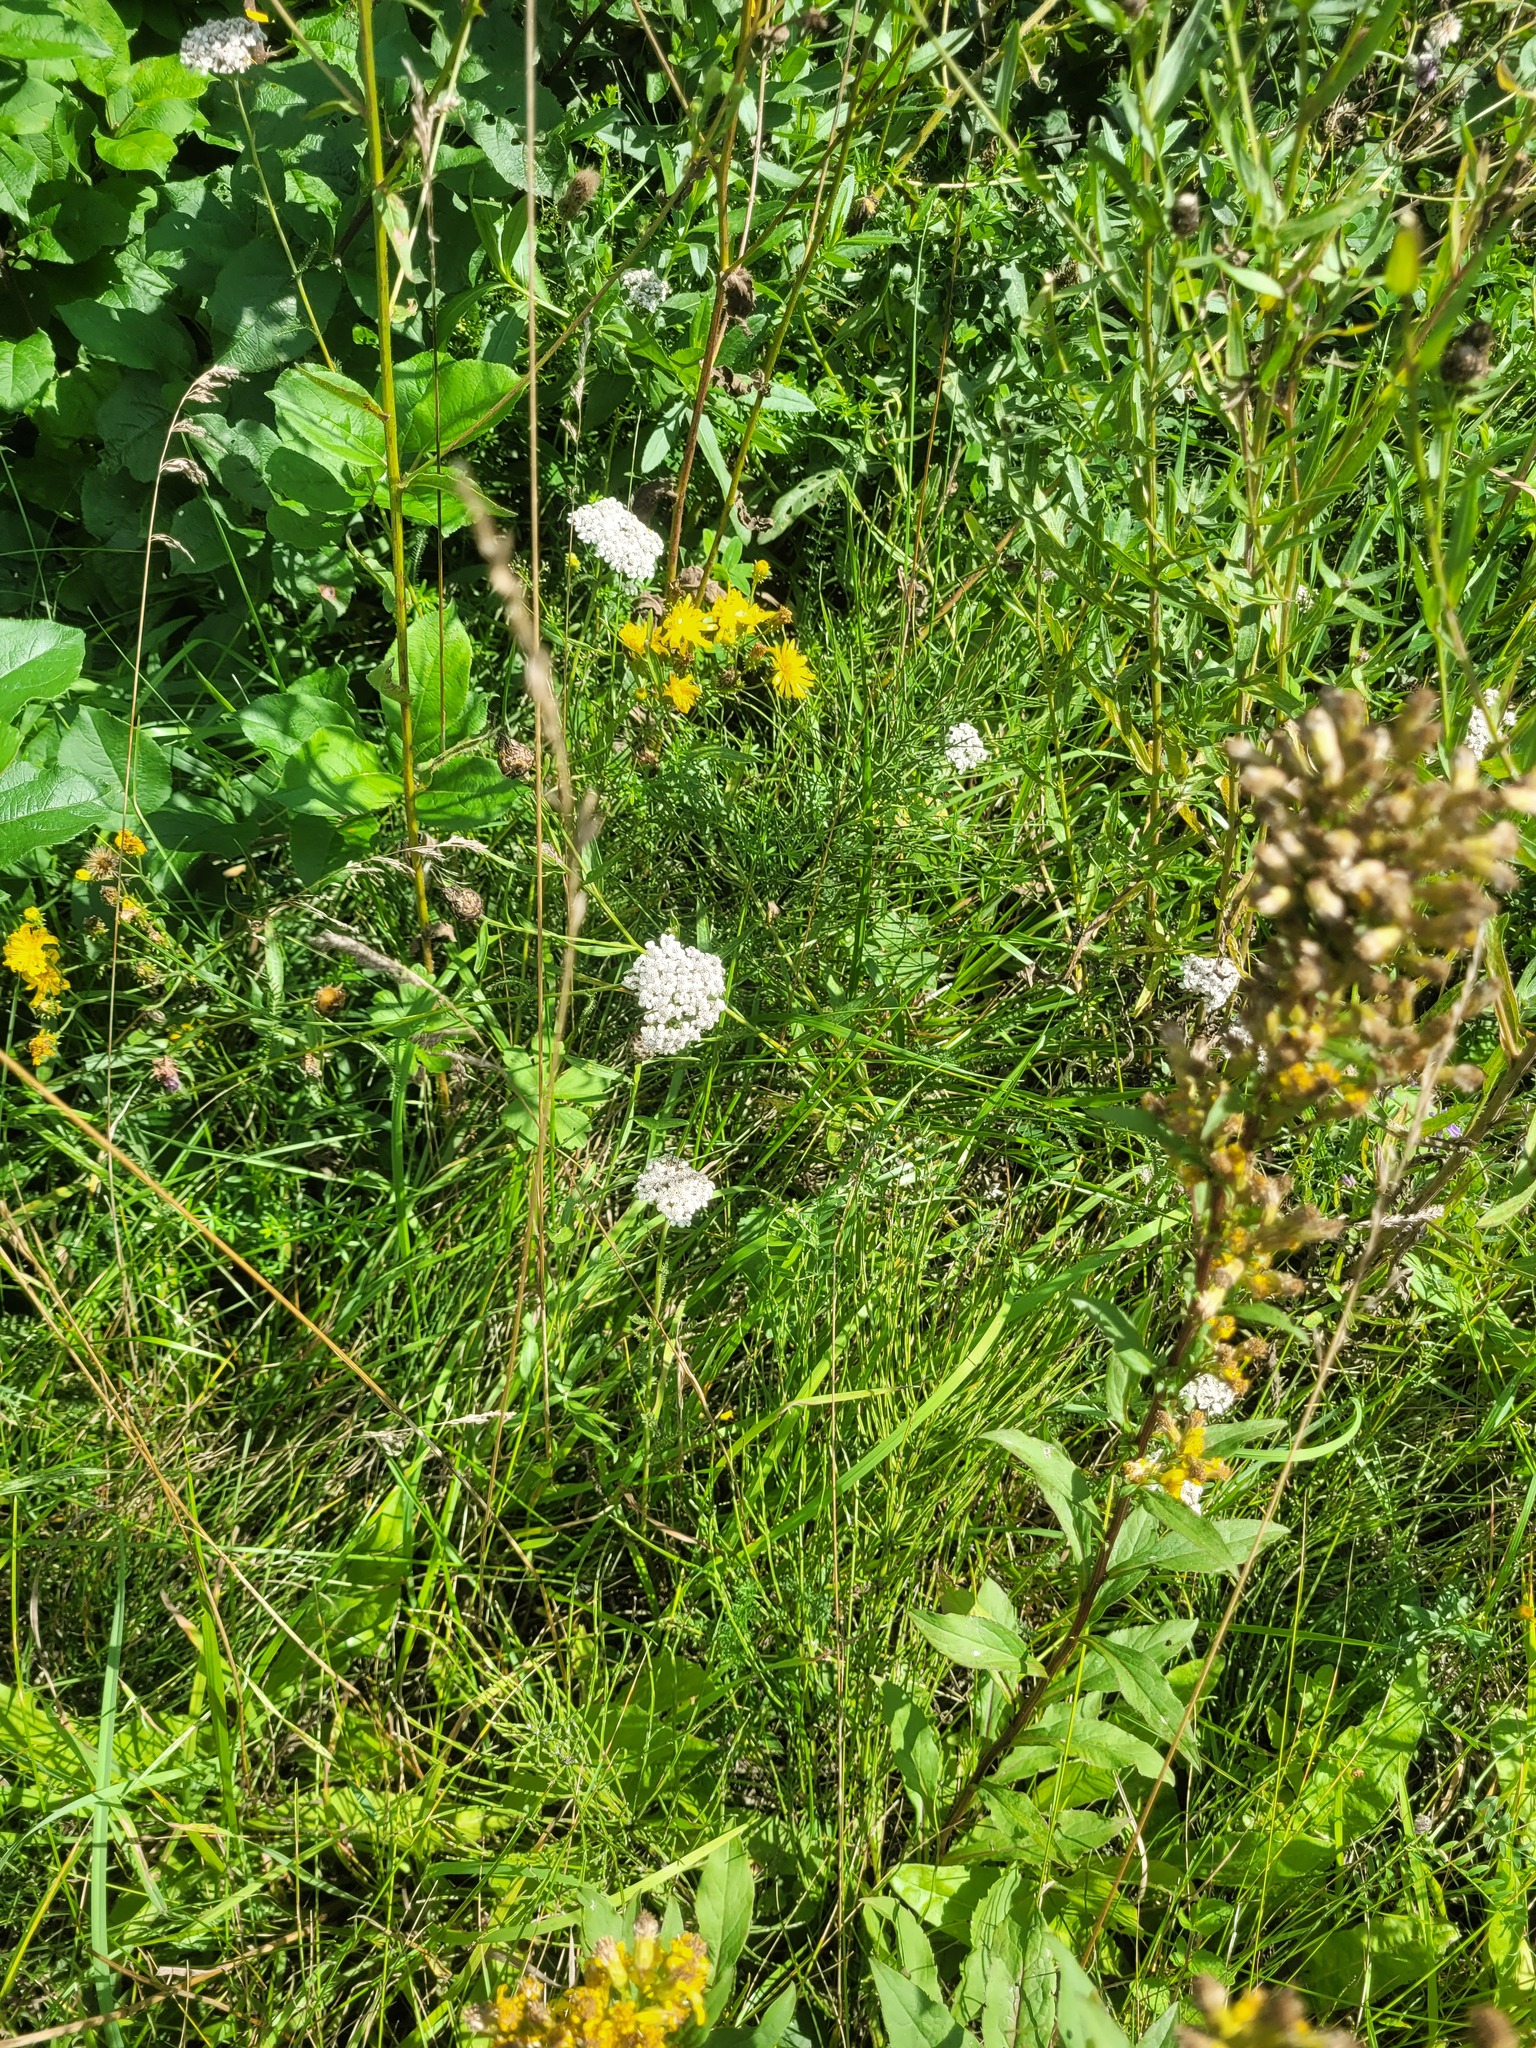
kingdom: Plantae
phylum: Tracheophyta
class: Magnoliopsida
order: Asterales
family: Asteraceae
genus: Achillea
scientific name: Achillea millefolium
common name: Yarrow
